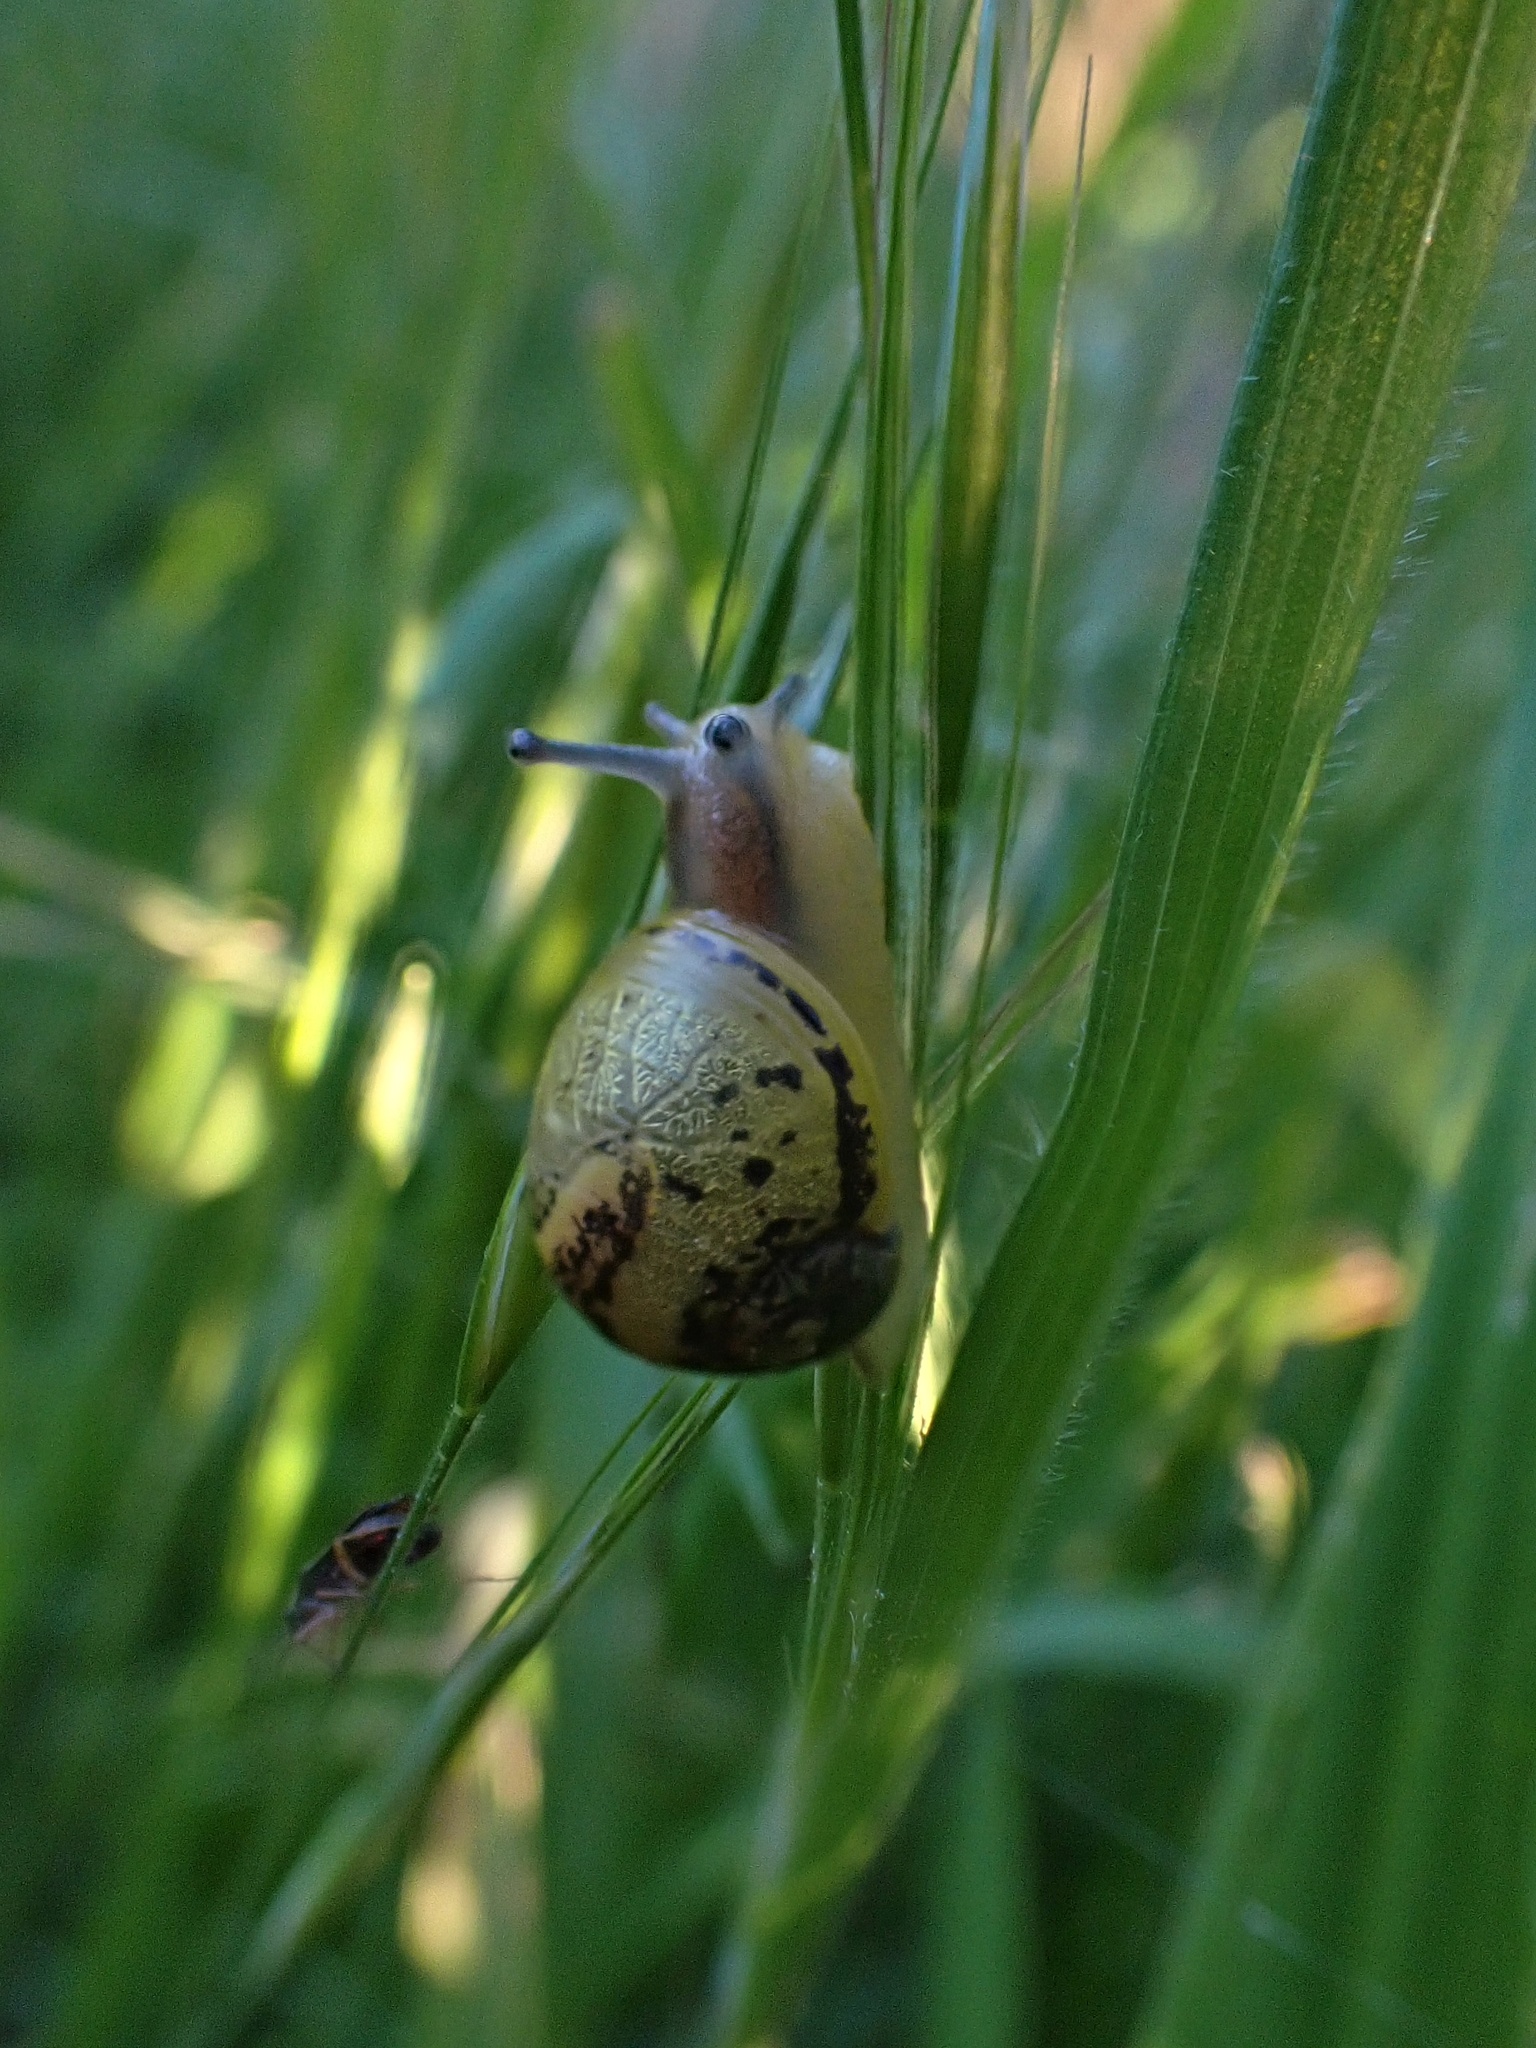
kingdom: Animalia
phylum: Mollusca
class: Gastropoda
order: Stylommatophora
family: Helicidae
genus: Cantareus
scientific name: Cantareus apertus
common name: Green gardensnail
